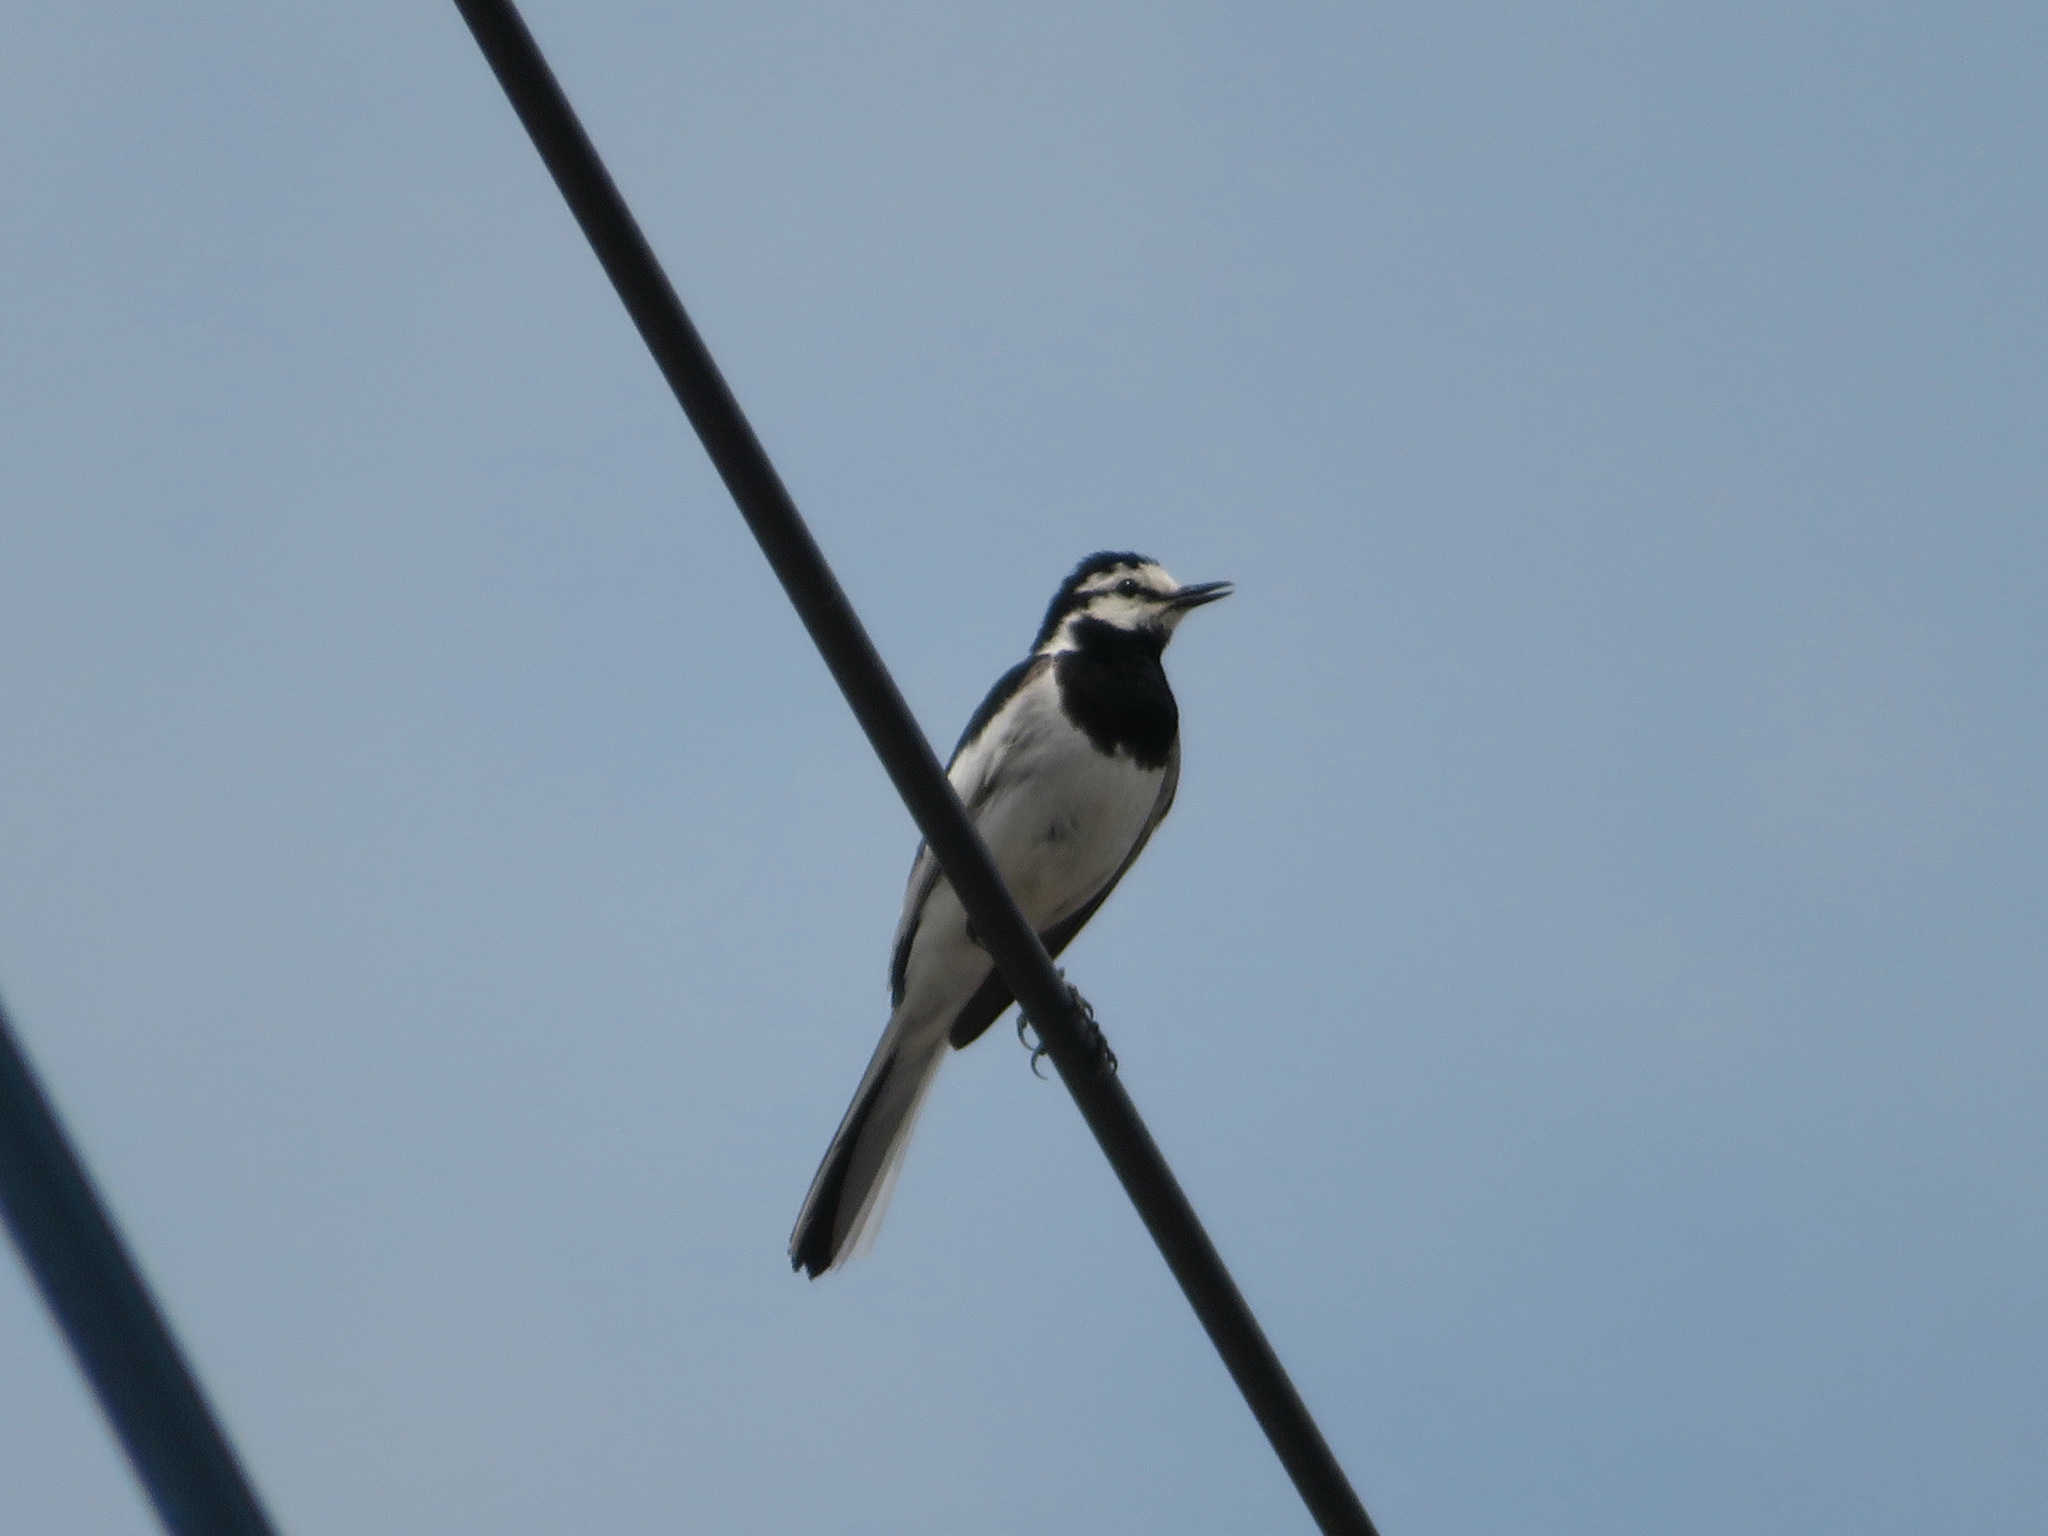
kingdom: Animalia
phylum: Chordata
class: Aves
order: Passeriformes
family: Motacillidae
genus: Motacilla
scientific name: Motacilla alba
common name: White wagtail
